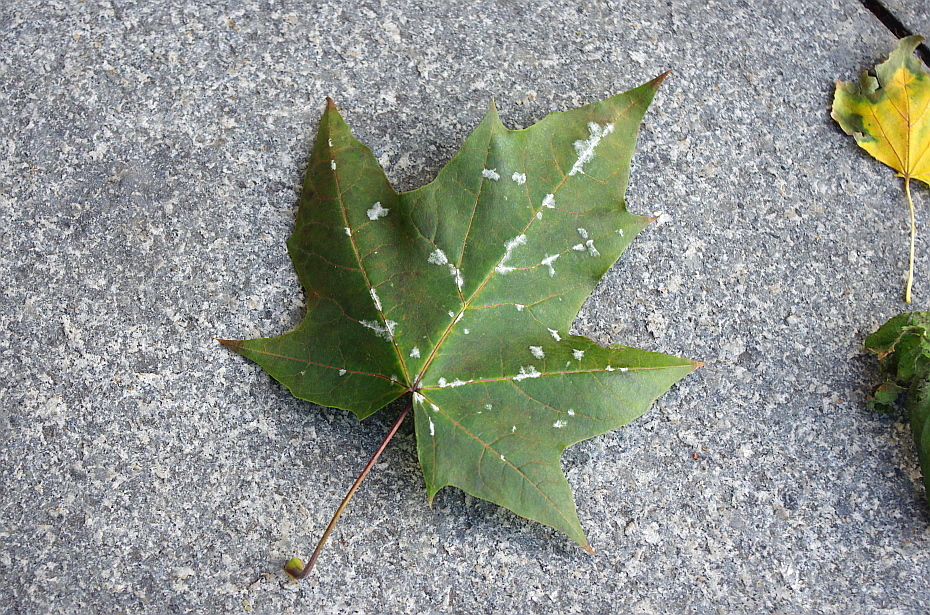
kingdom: Fungi
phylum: Ascomycota
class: Leotiomycetes
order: Helotiales
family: Erysiphaceae
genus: Sawadaea
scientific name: Sawadaea tulasnei
